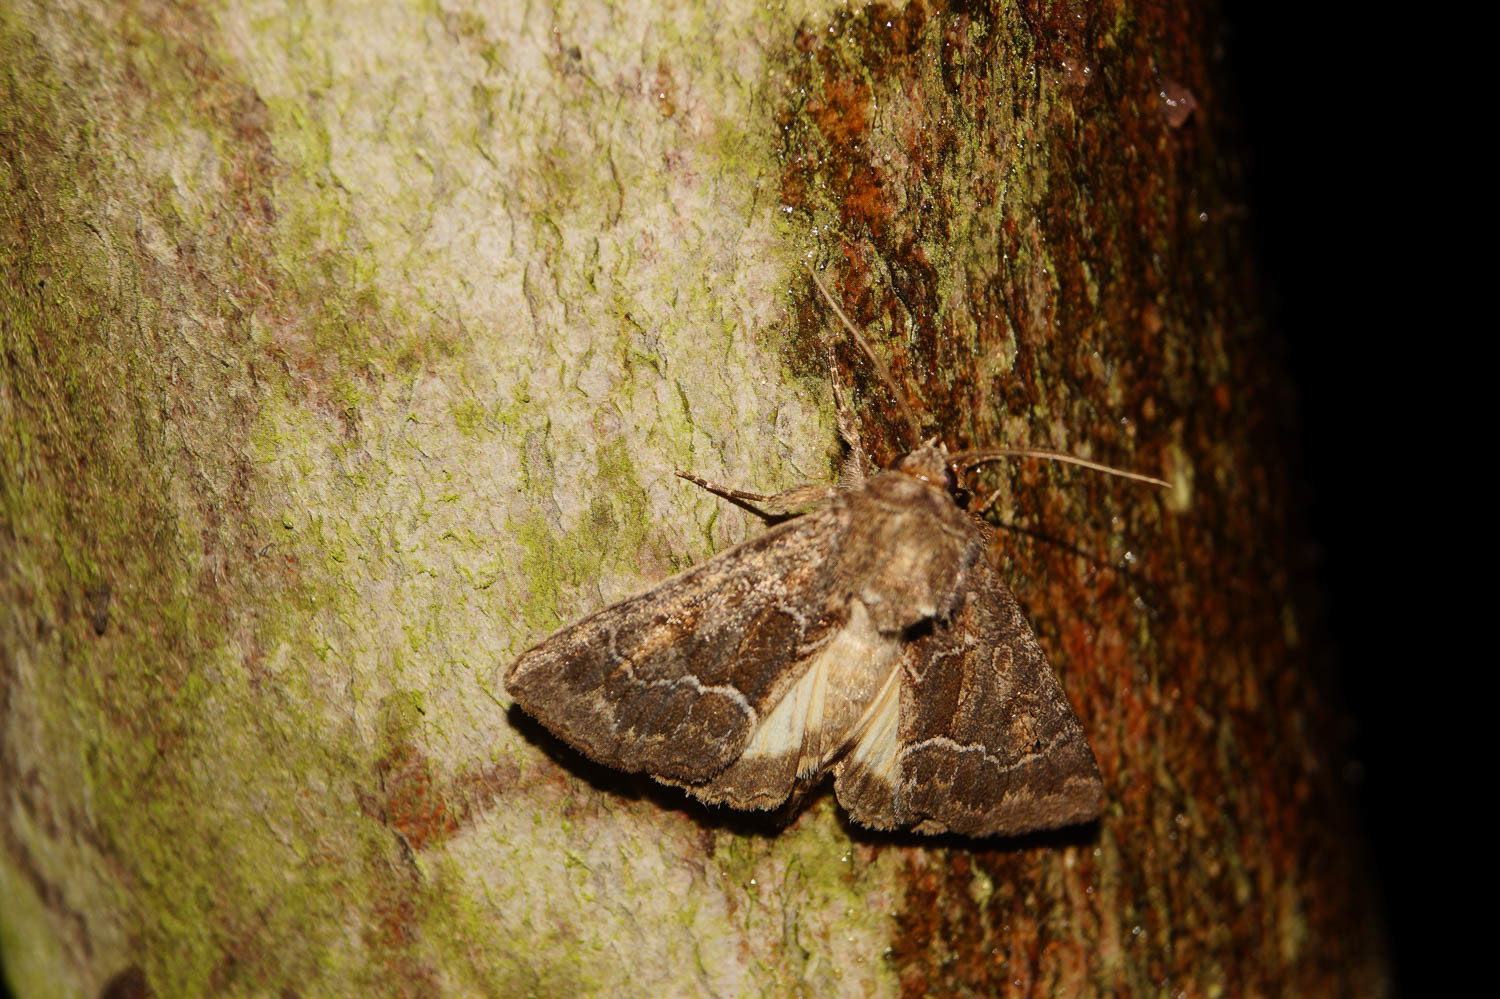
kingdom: Animalia
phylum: Arthropoda
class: Insecta
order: Lepidoptera
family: Noctuidae
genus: Thalpophila
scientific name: Thalpophila matura
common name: Straw underwing
